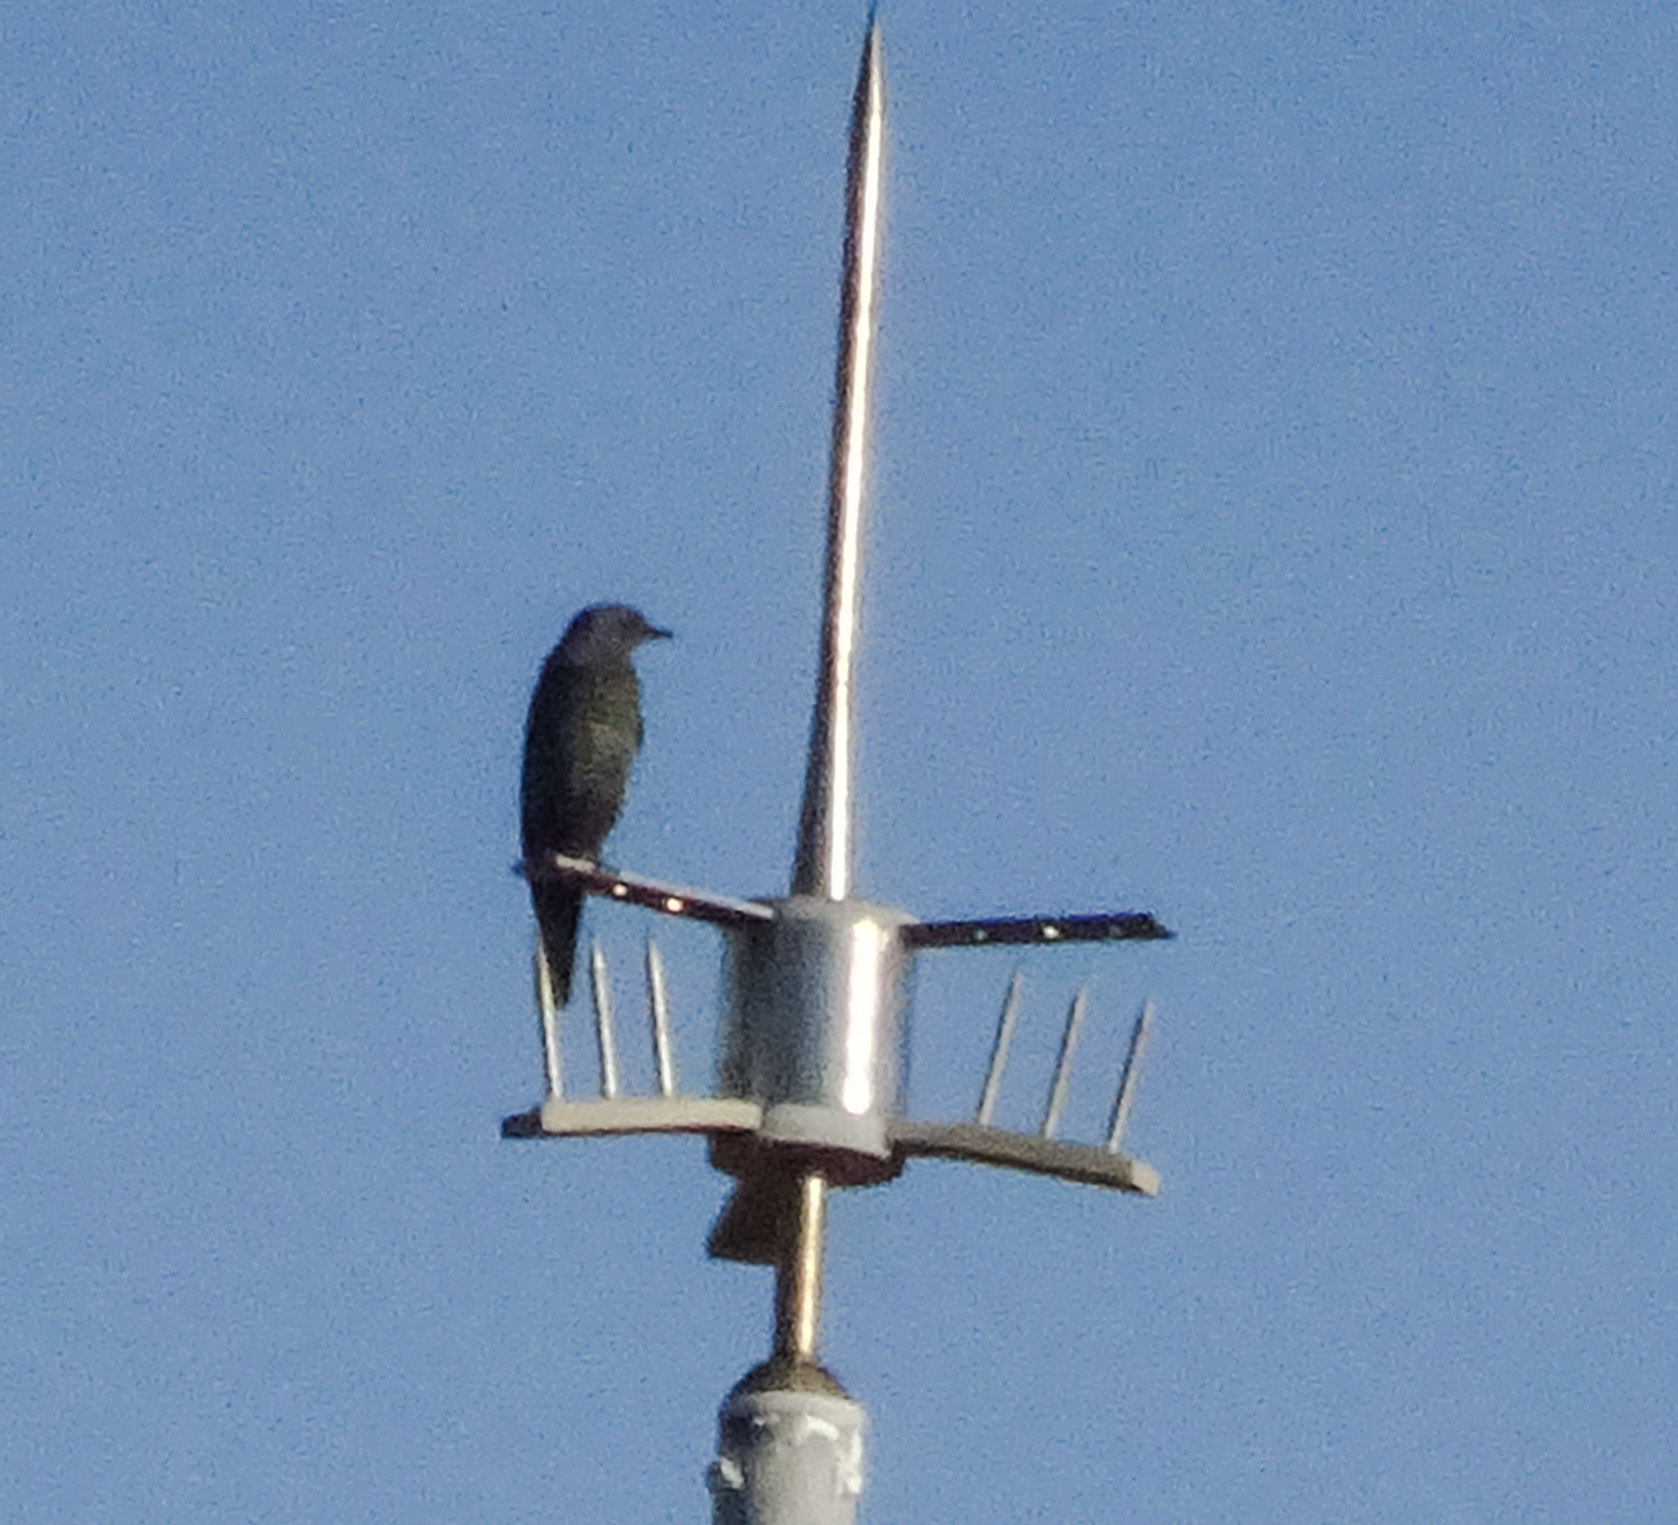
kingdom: Animalia
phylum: Chordata
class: Aves
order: Passeriformes
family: Muscicapidae
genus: Monticola
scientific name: Monticola solitarius
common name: Blue rock thrush
